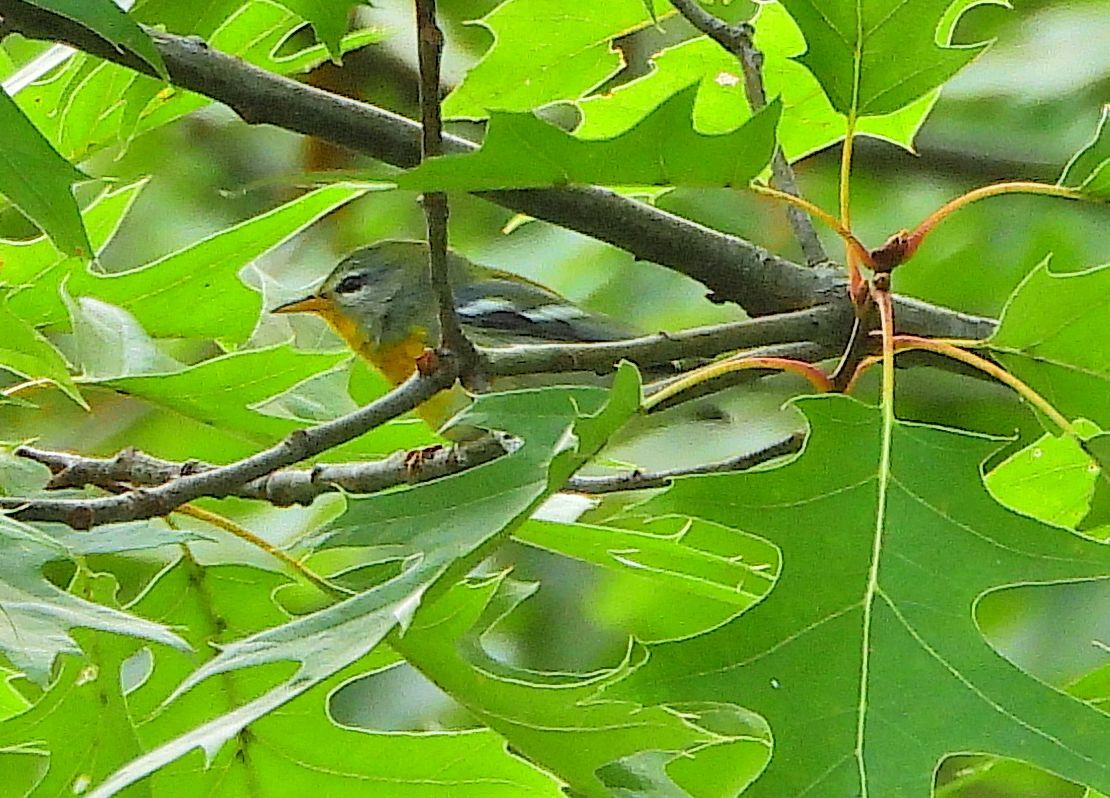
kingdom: Animalia
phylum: Chordata
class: Aves
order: Passeriformes
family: Parulidae
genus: Setophaga
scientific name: Setophaga americana
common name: Northern parula
